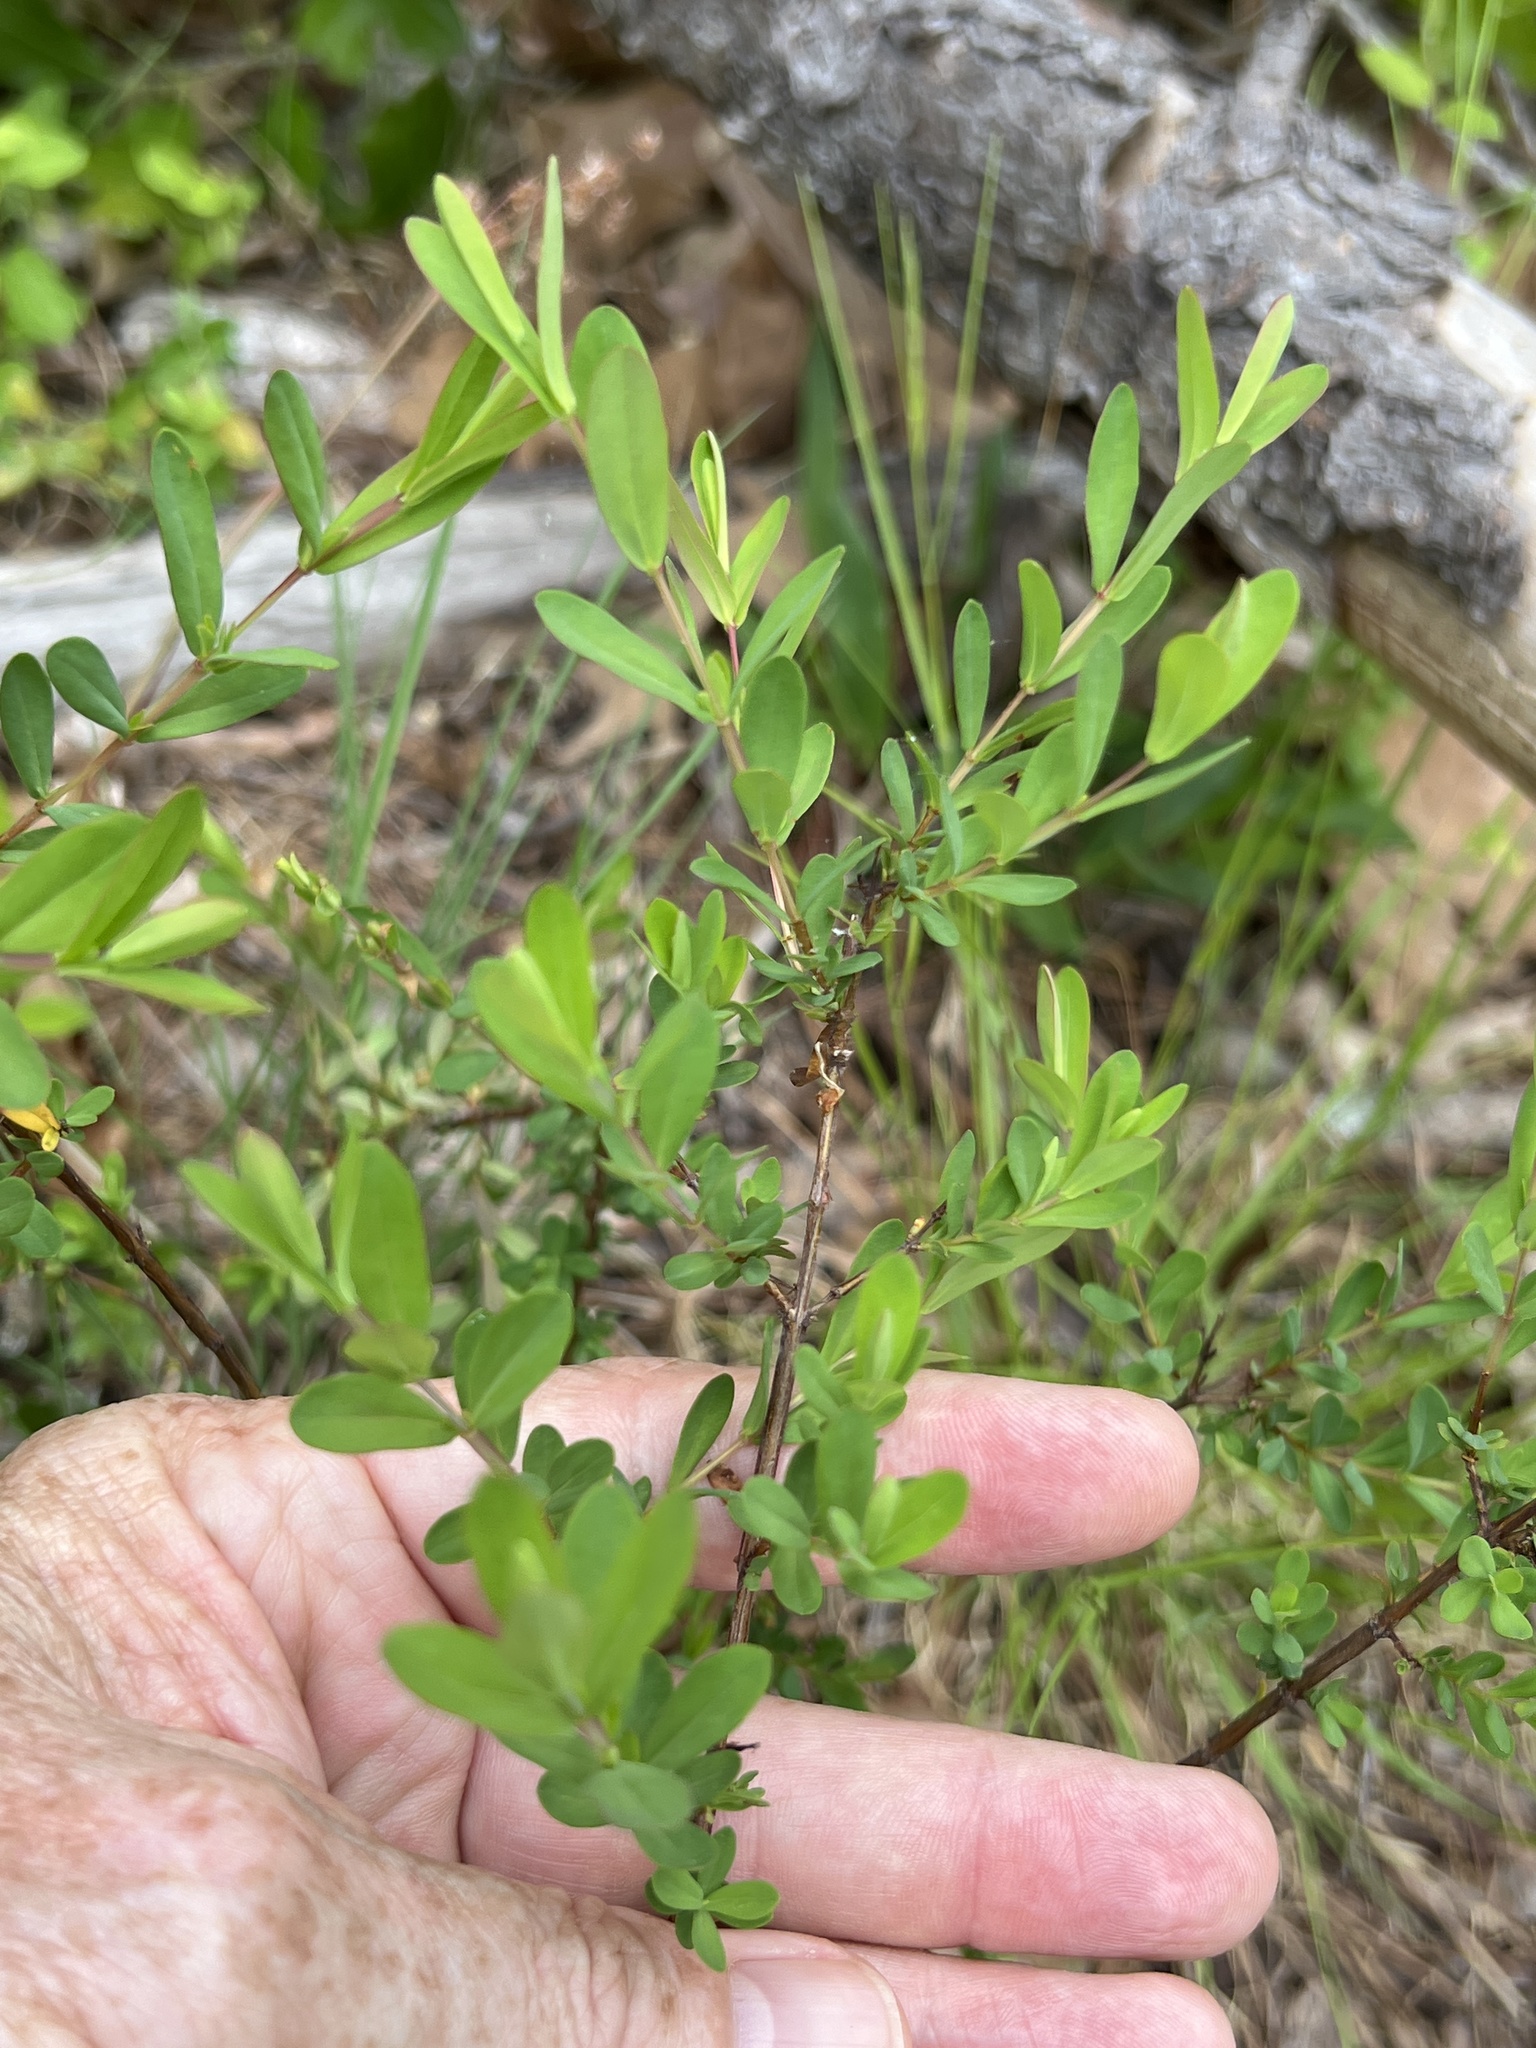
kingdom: Plantae
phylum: Tracheophyta
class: Magnoliopsida
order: Malpighiales
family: Hypericaceae
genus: Hypericum
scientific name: Hypericum hypericoides
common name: St. andrew's cross
